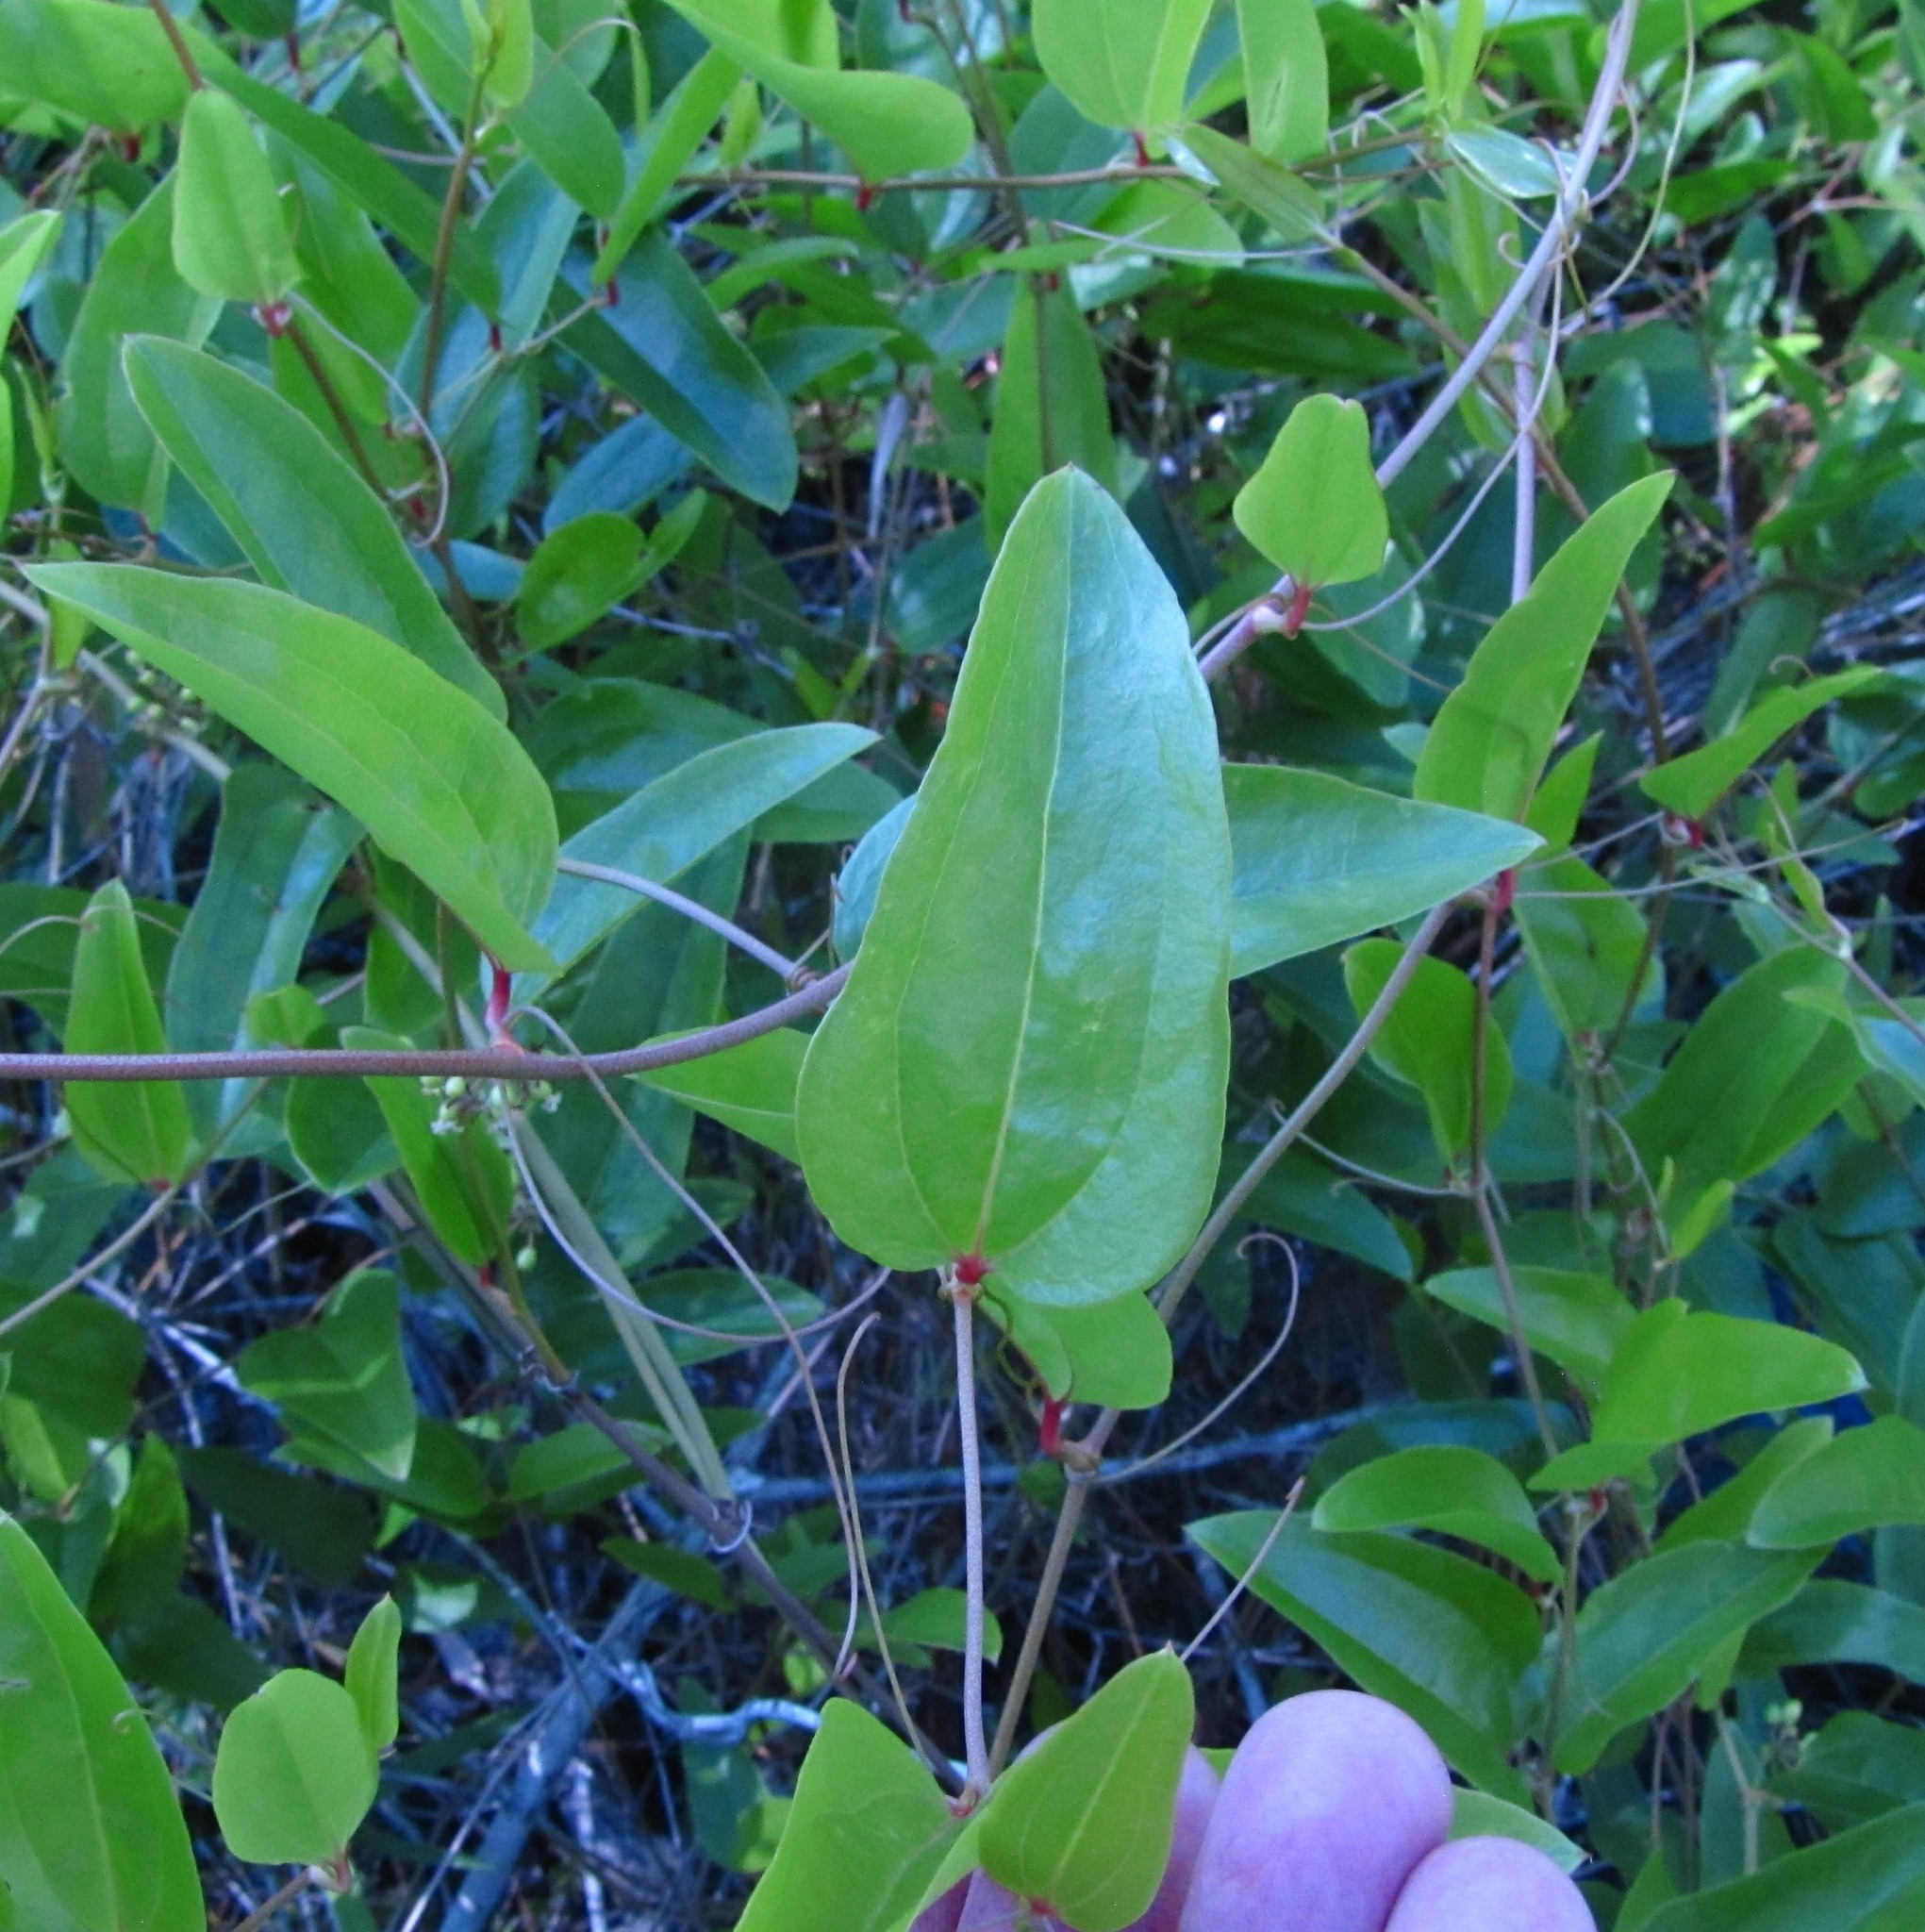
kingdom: Plantae
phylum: Tracheophyta
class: Liliopsida
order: Liliales
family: Smilacaceae
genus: Smilax
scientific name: Smilax walteri
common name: Coral greenbrier
